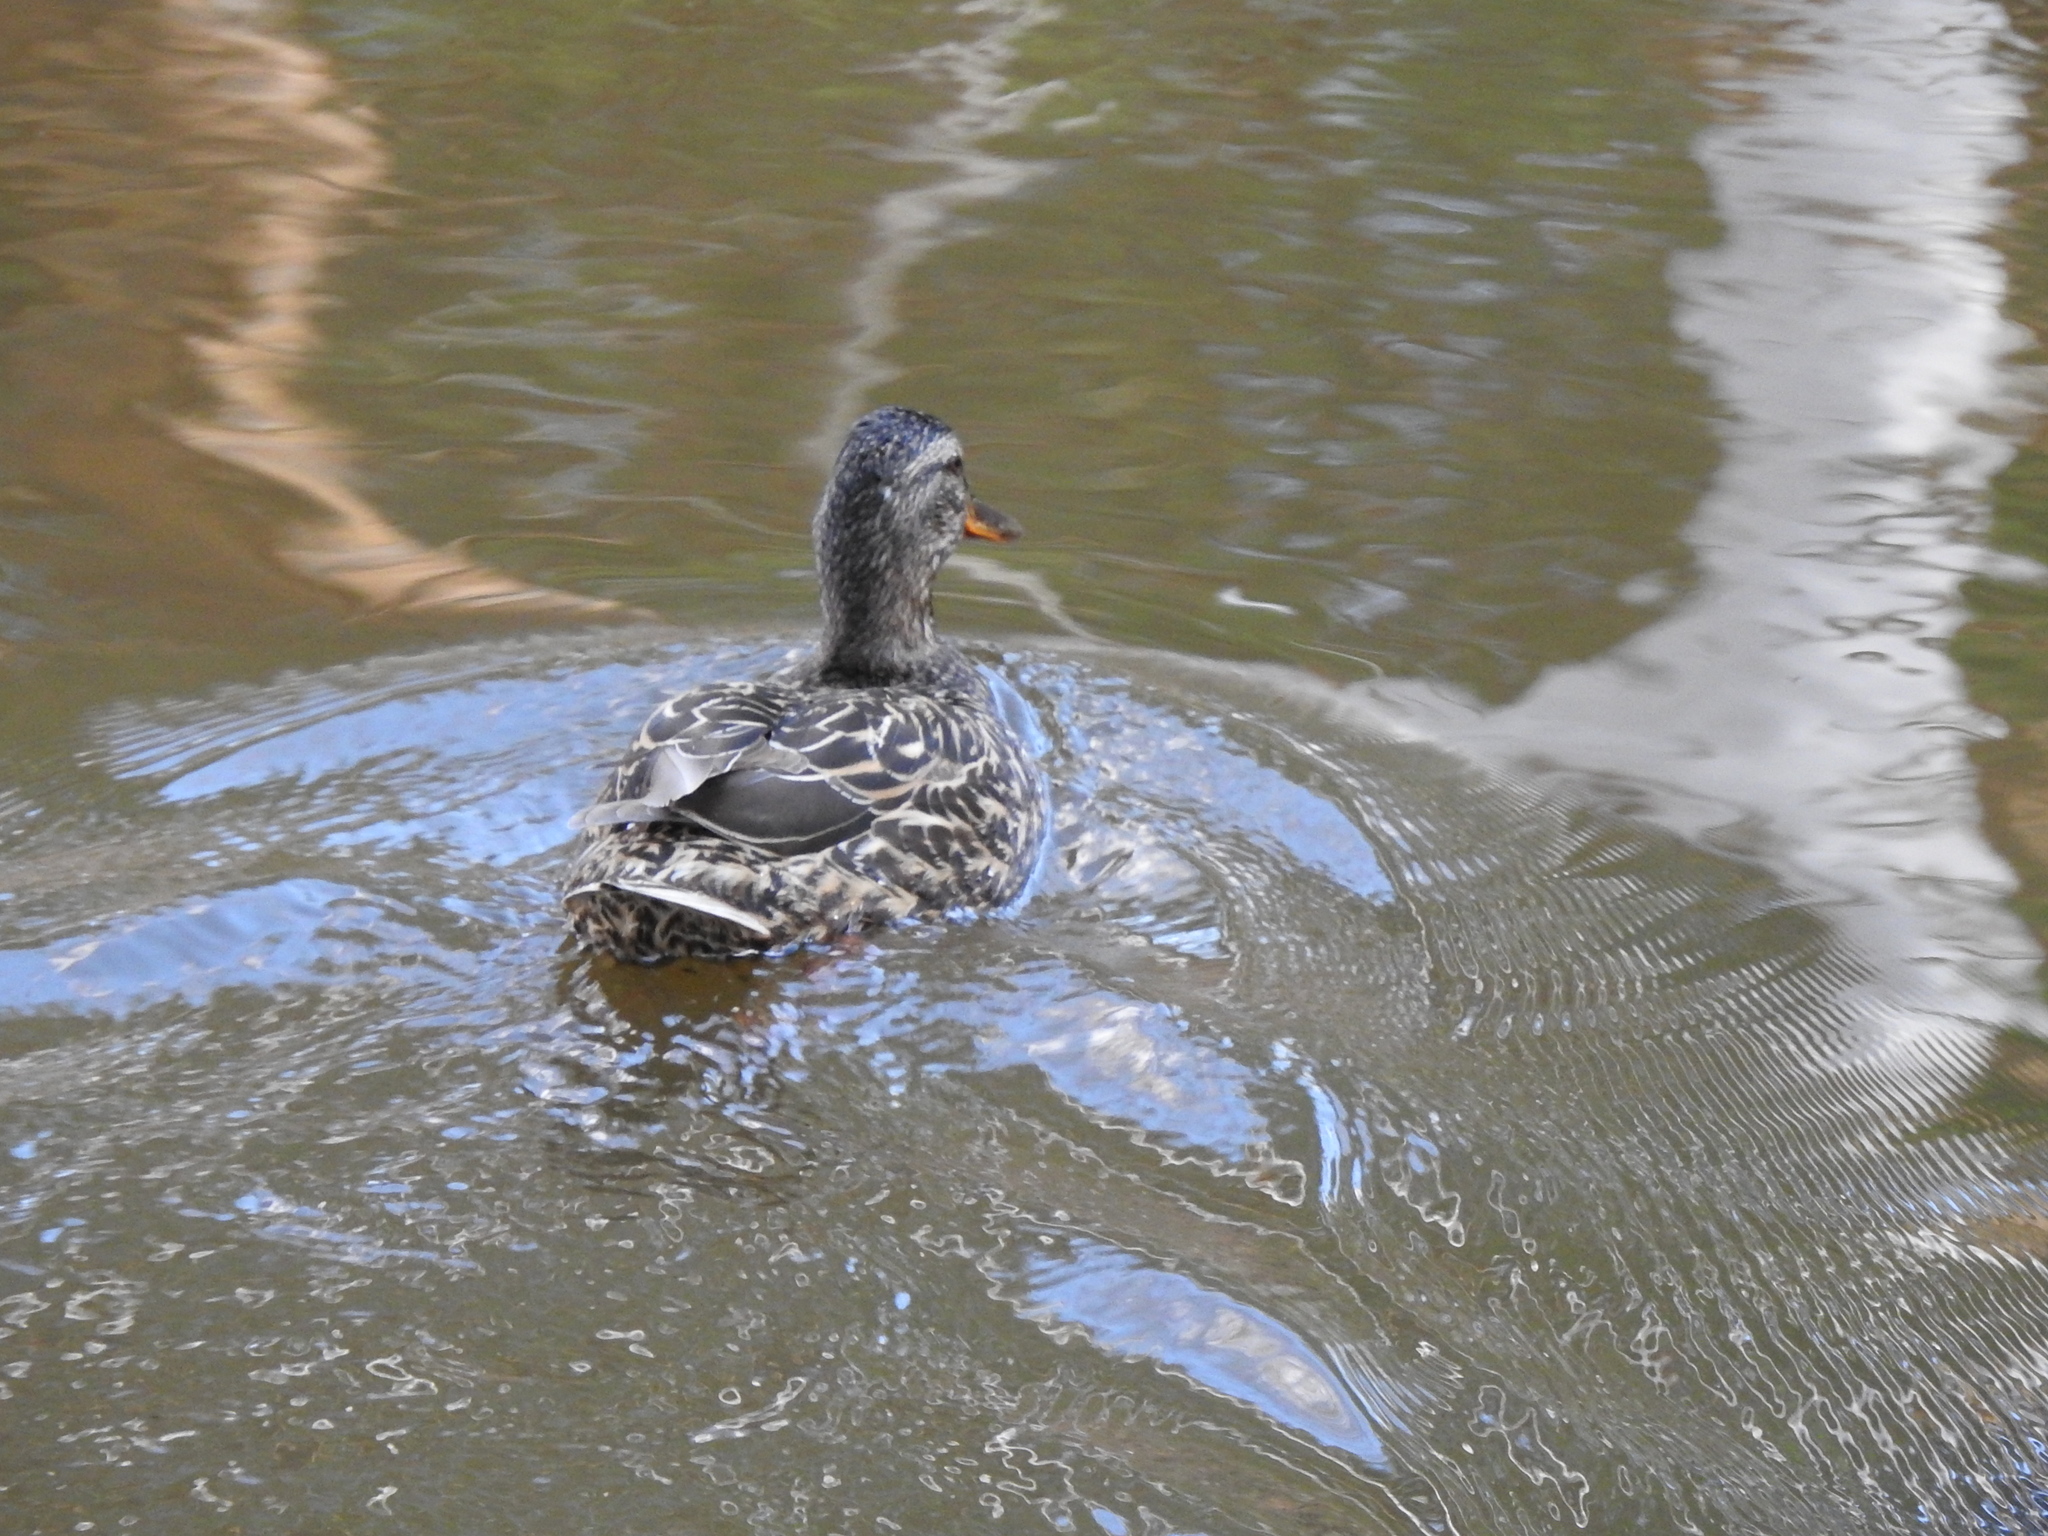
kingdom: Animalia
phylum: Chordata
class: Aves
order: Anseriformes
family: Anatidae
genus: Anas
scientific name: Anas platyrhynchos
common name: Mallard
